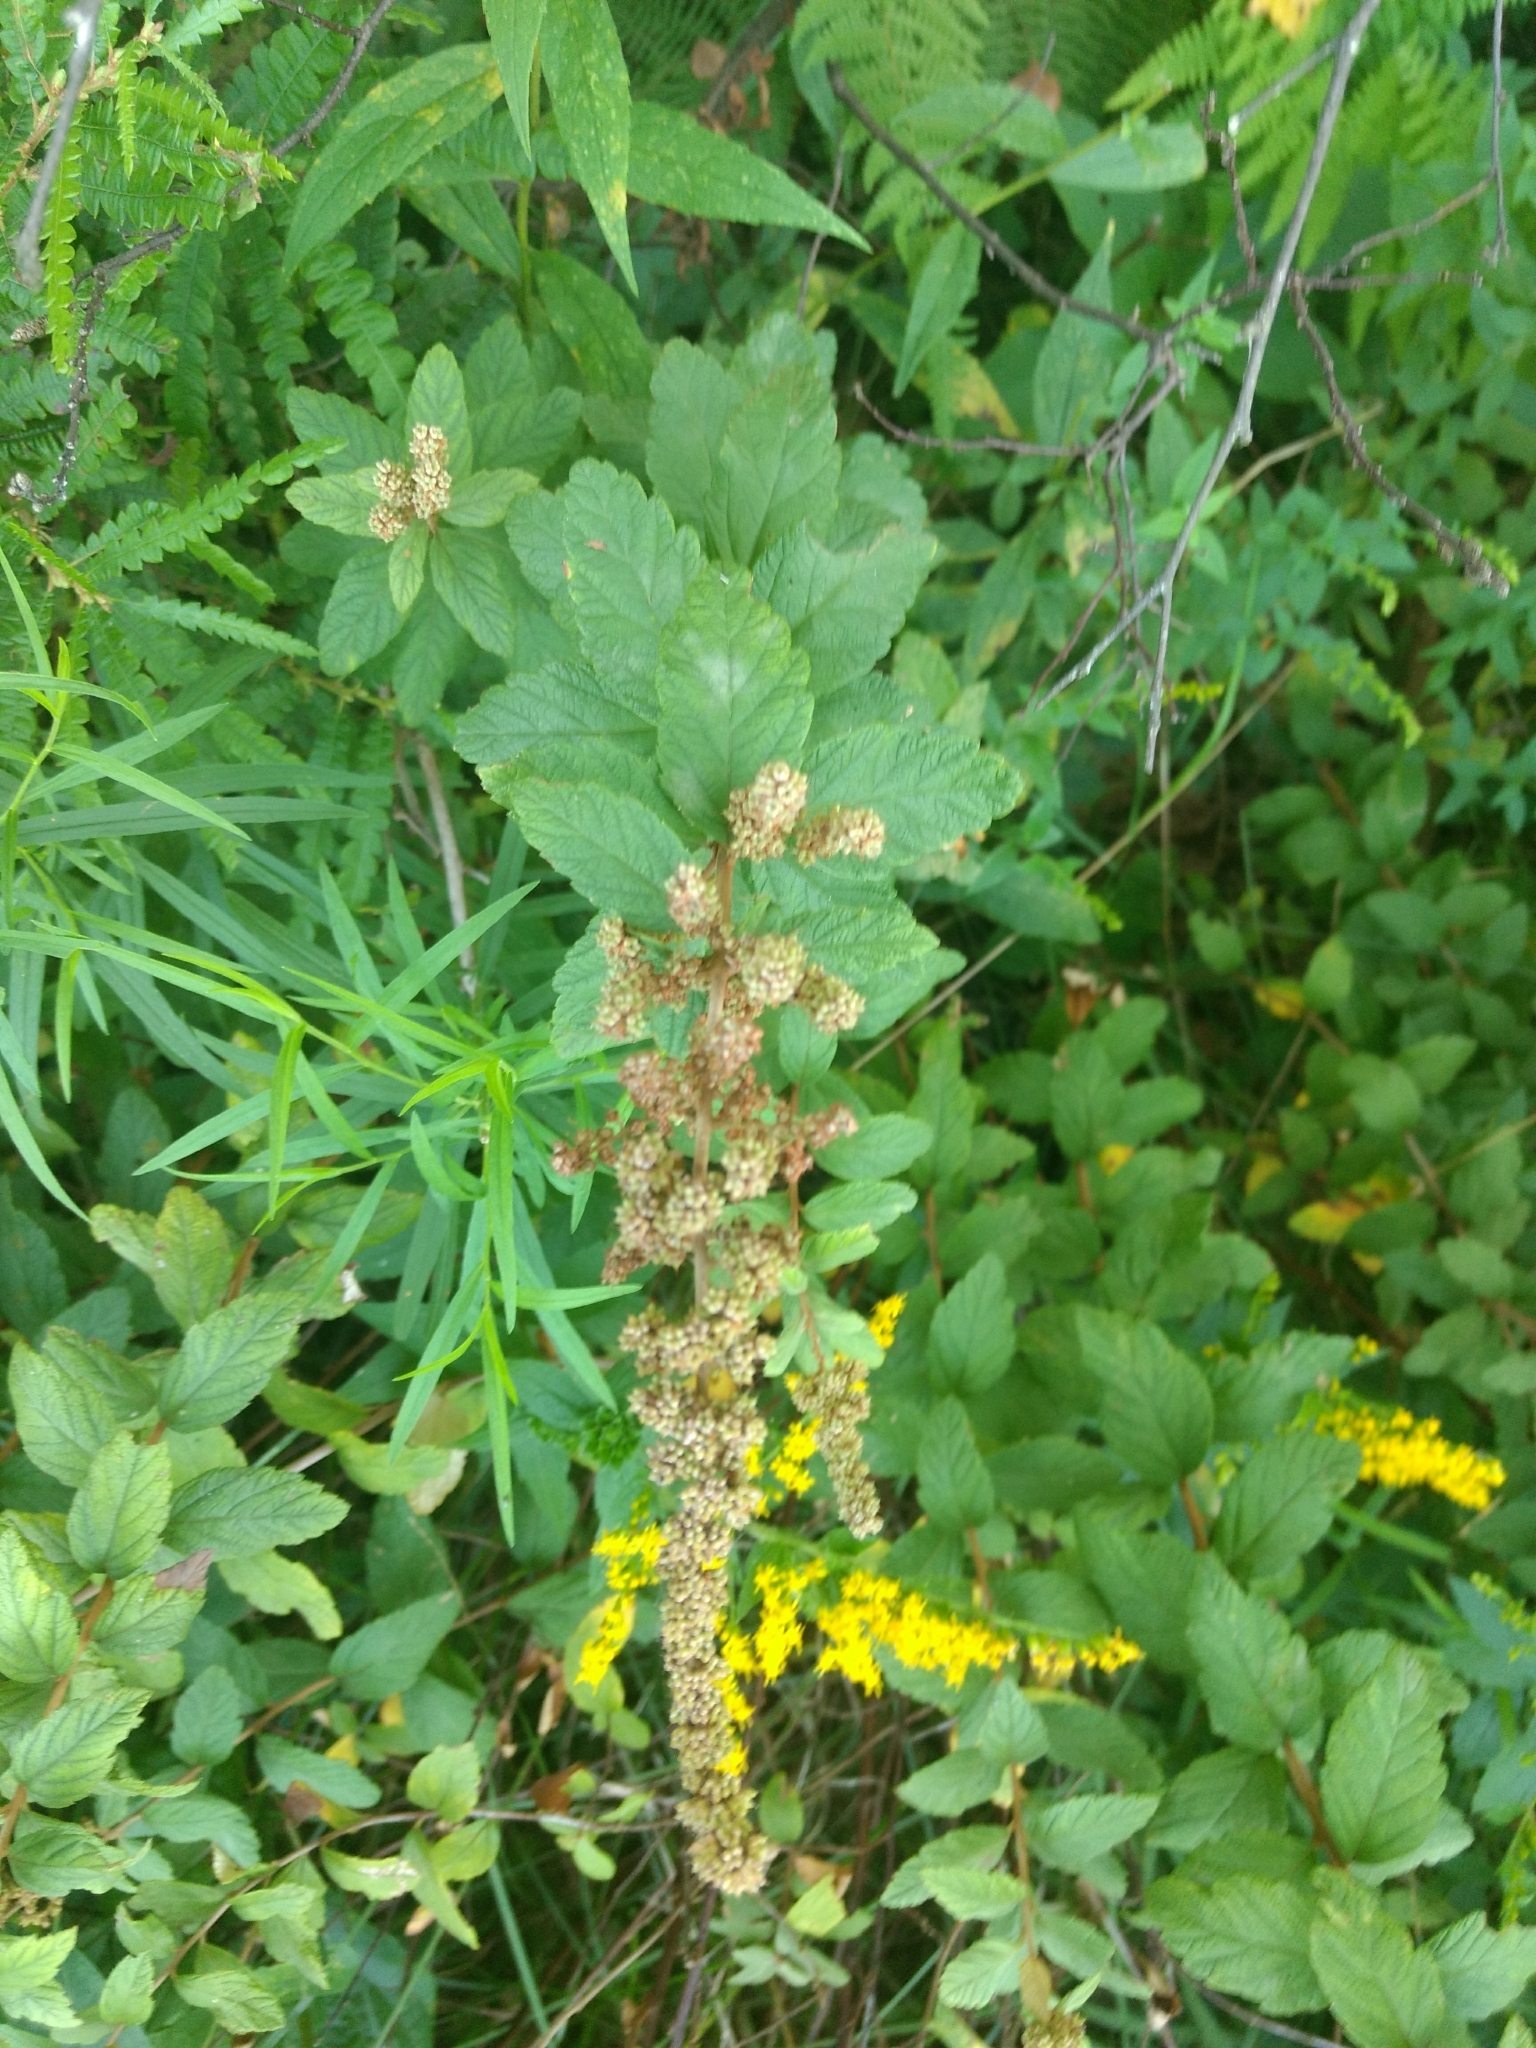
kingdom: Plantae
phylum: Tracheophyta
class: Magnoliopsida
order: Rosales
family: Rosaceae
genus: Spiraea
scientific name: Spiraea tomentosa
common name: Hardhack
